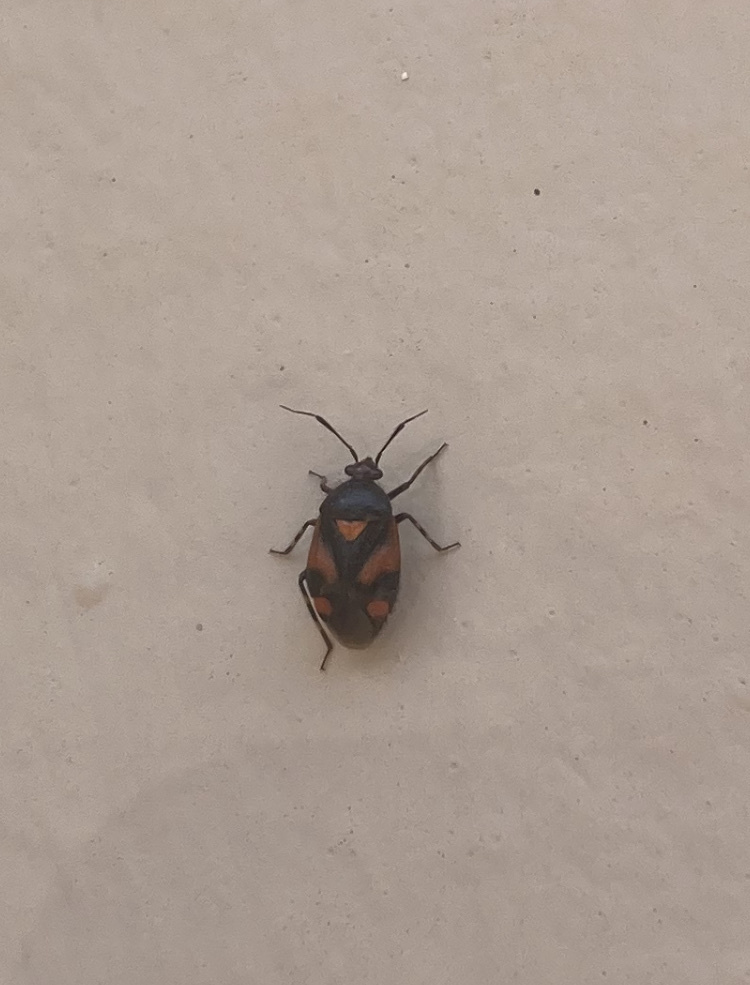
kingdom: Animalia
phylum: Arthropoda
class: Insecta
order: Hemiptera
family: Miridae
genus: Deraeocoris
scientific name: Deraeocoris schach
